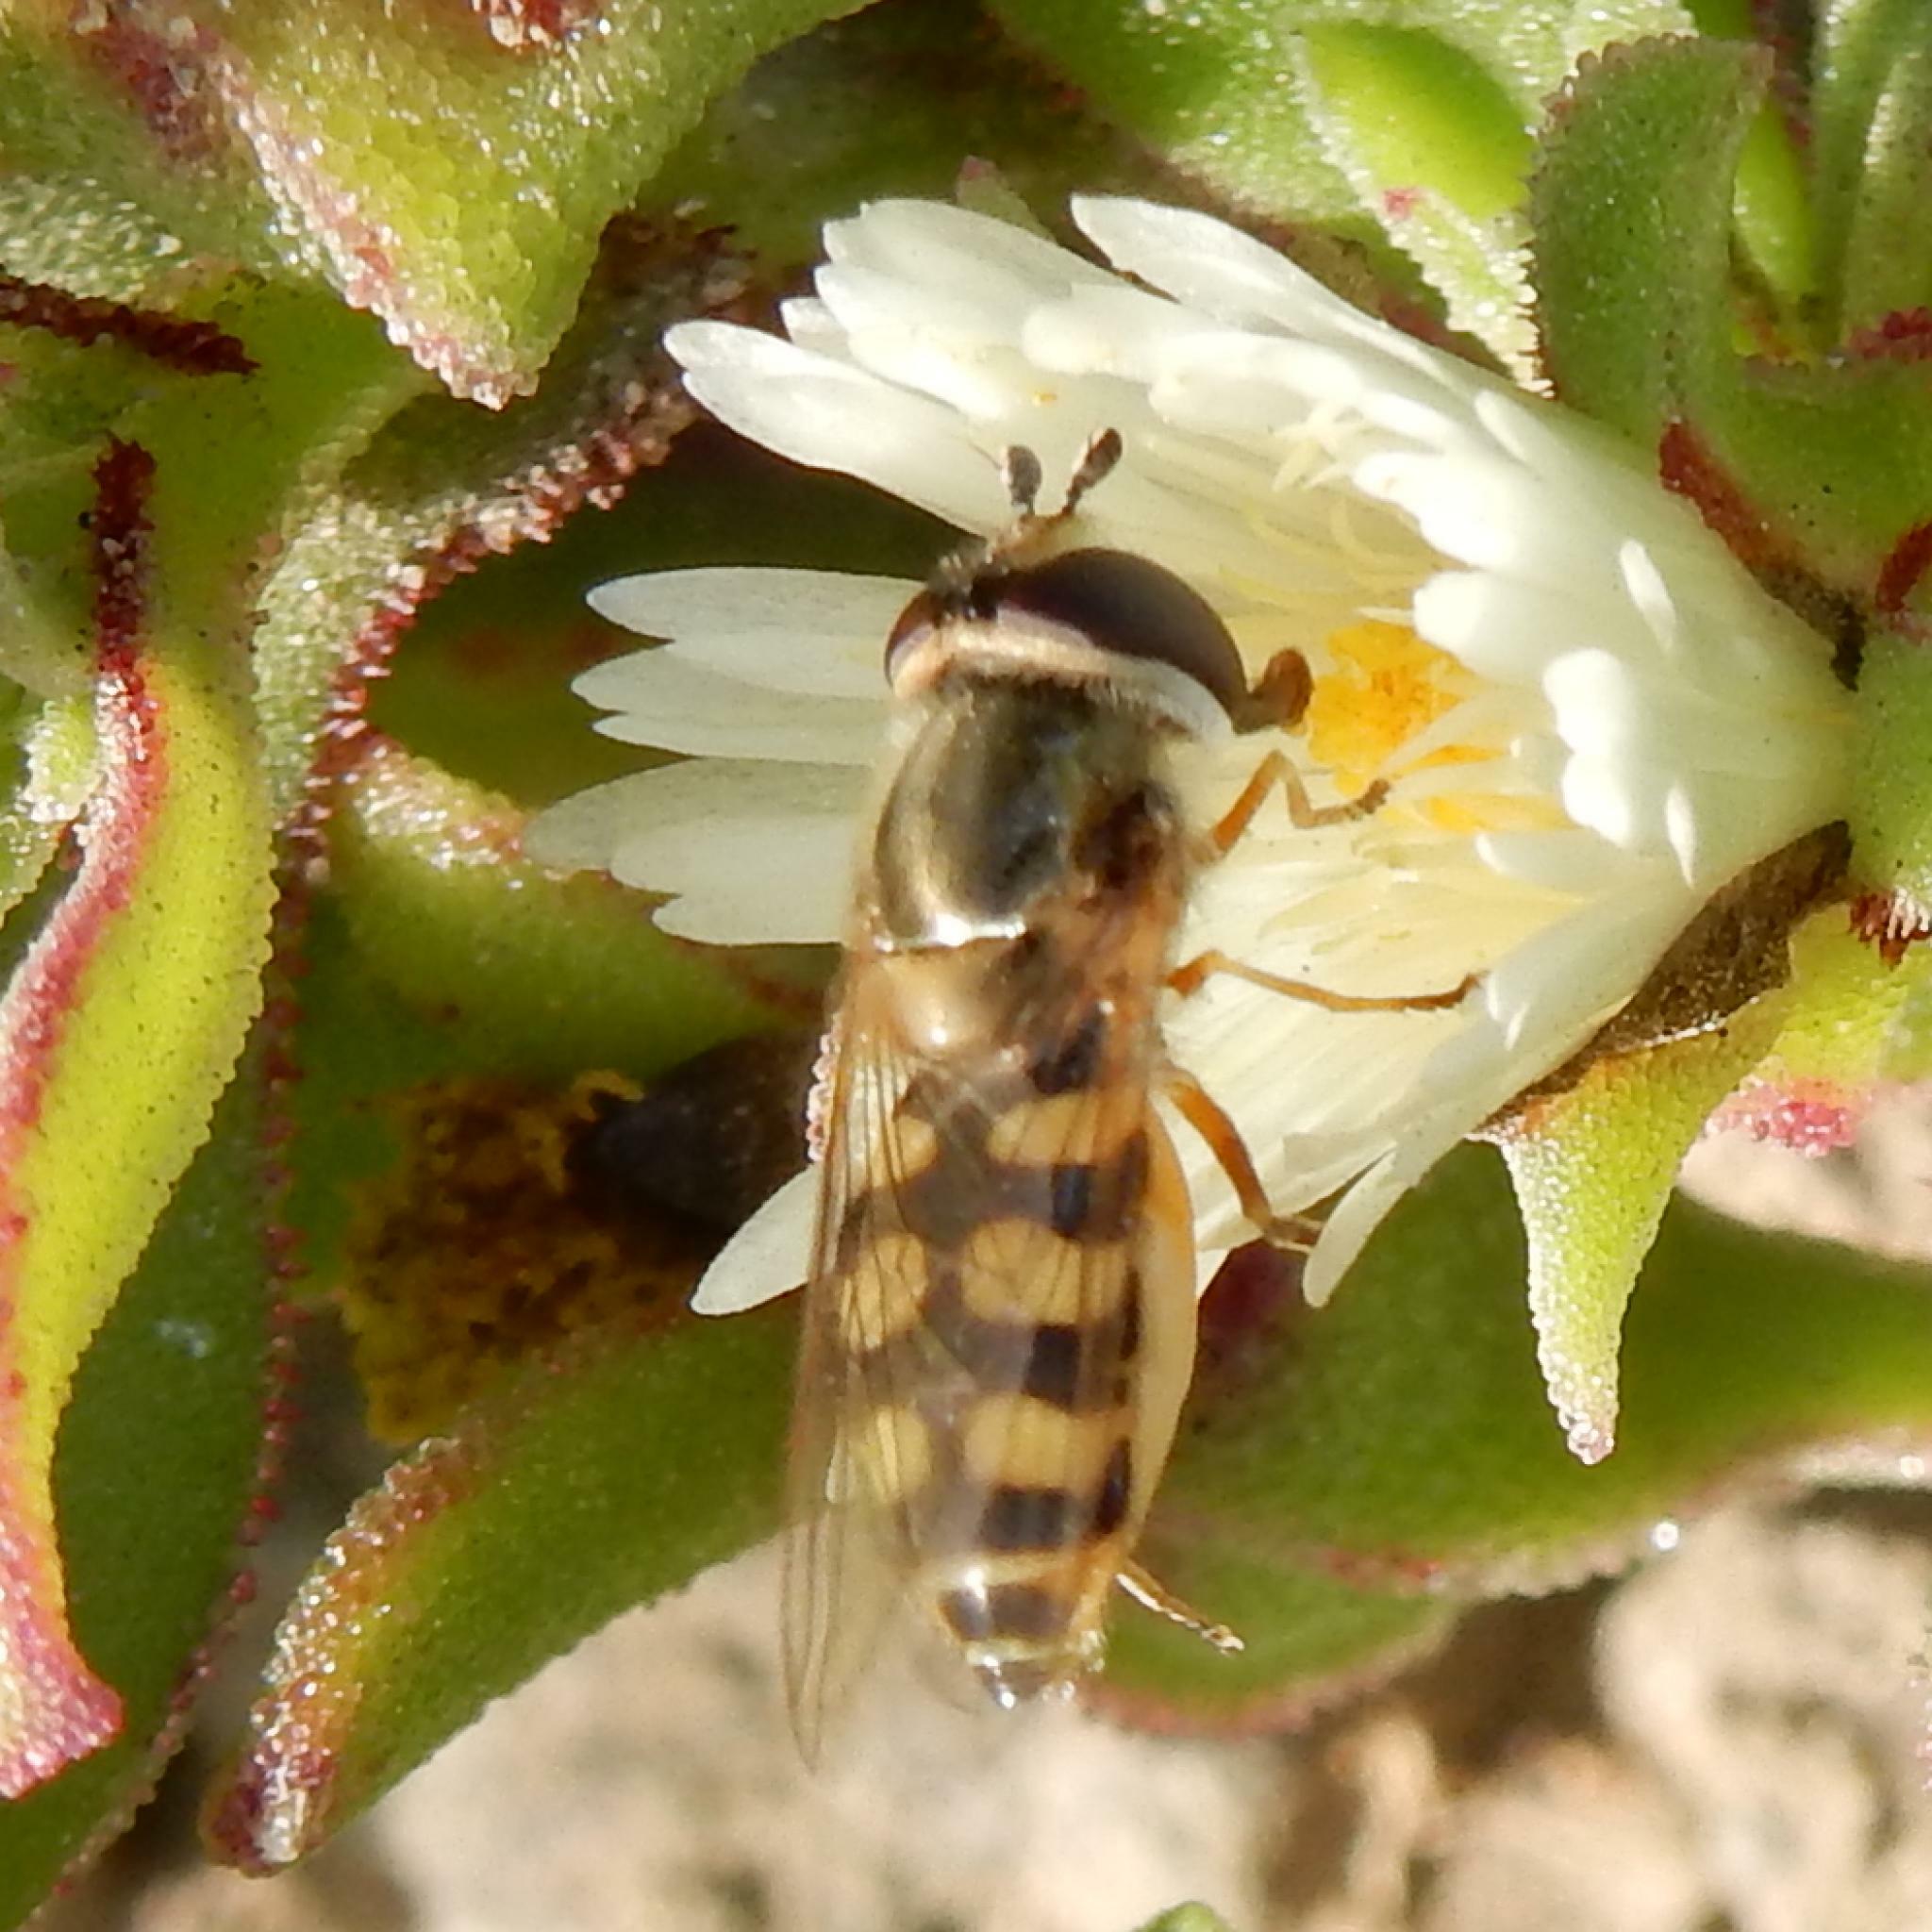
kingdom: Animalia
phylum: Arthropoda
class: Insecta
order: Diptera
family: Syrphidae
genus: Eupeodes
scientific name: Eupeodes corollae
